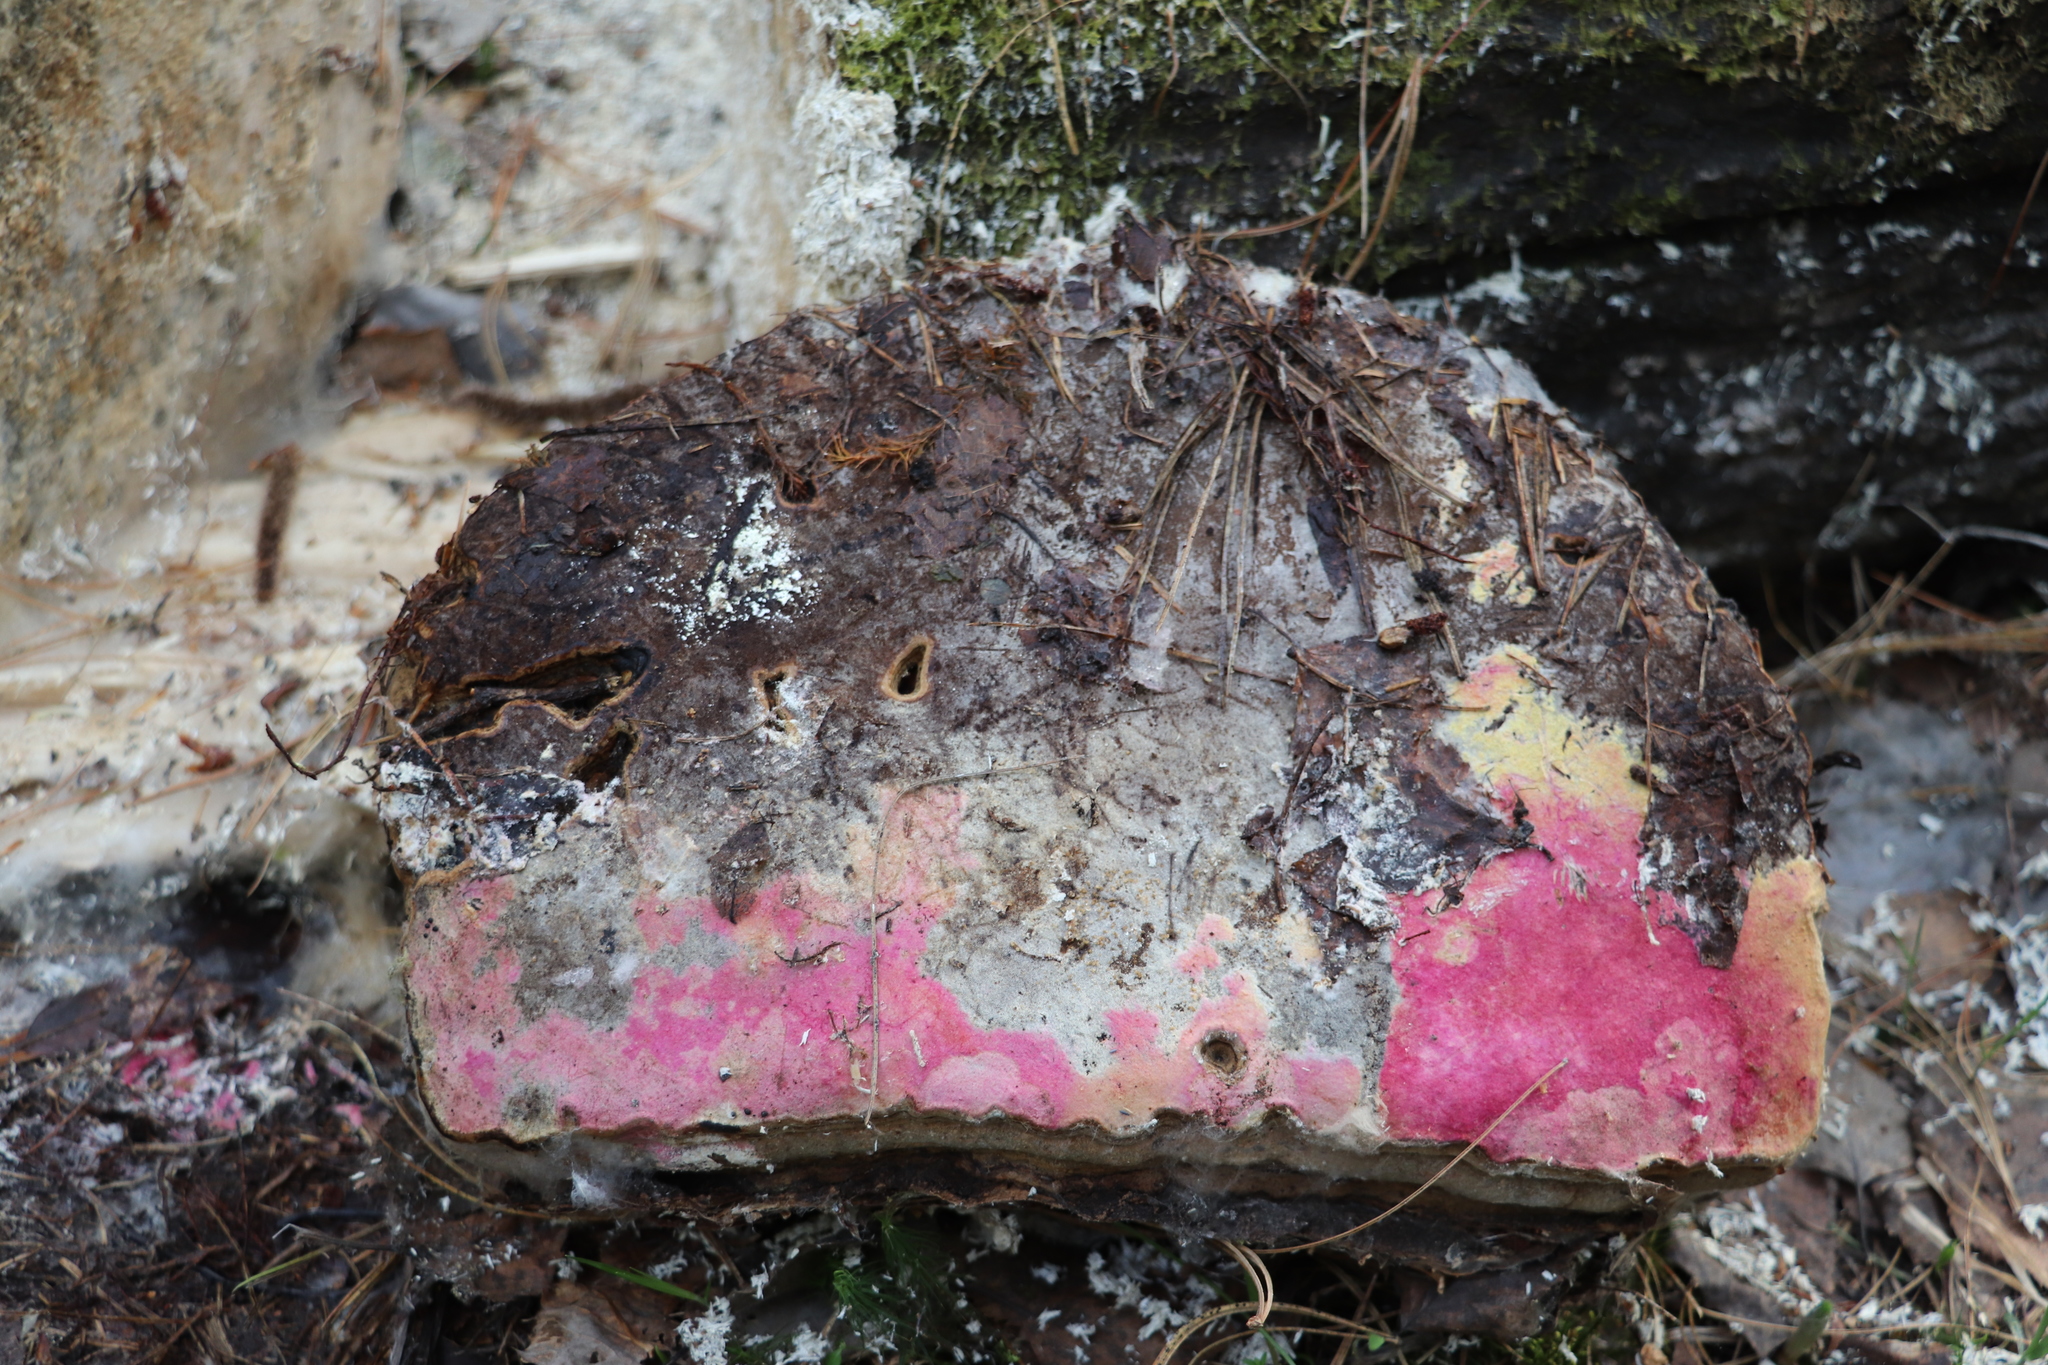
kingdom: Fungi
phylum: Ascomycota
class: Sordariomycetes
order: Hypocreales
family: Hypocreaceae
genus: Hypomyces
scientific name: Hypomyces rosellus
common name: Pink polypore mould
